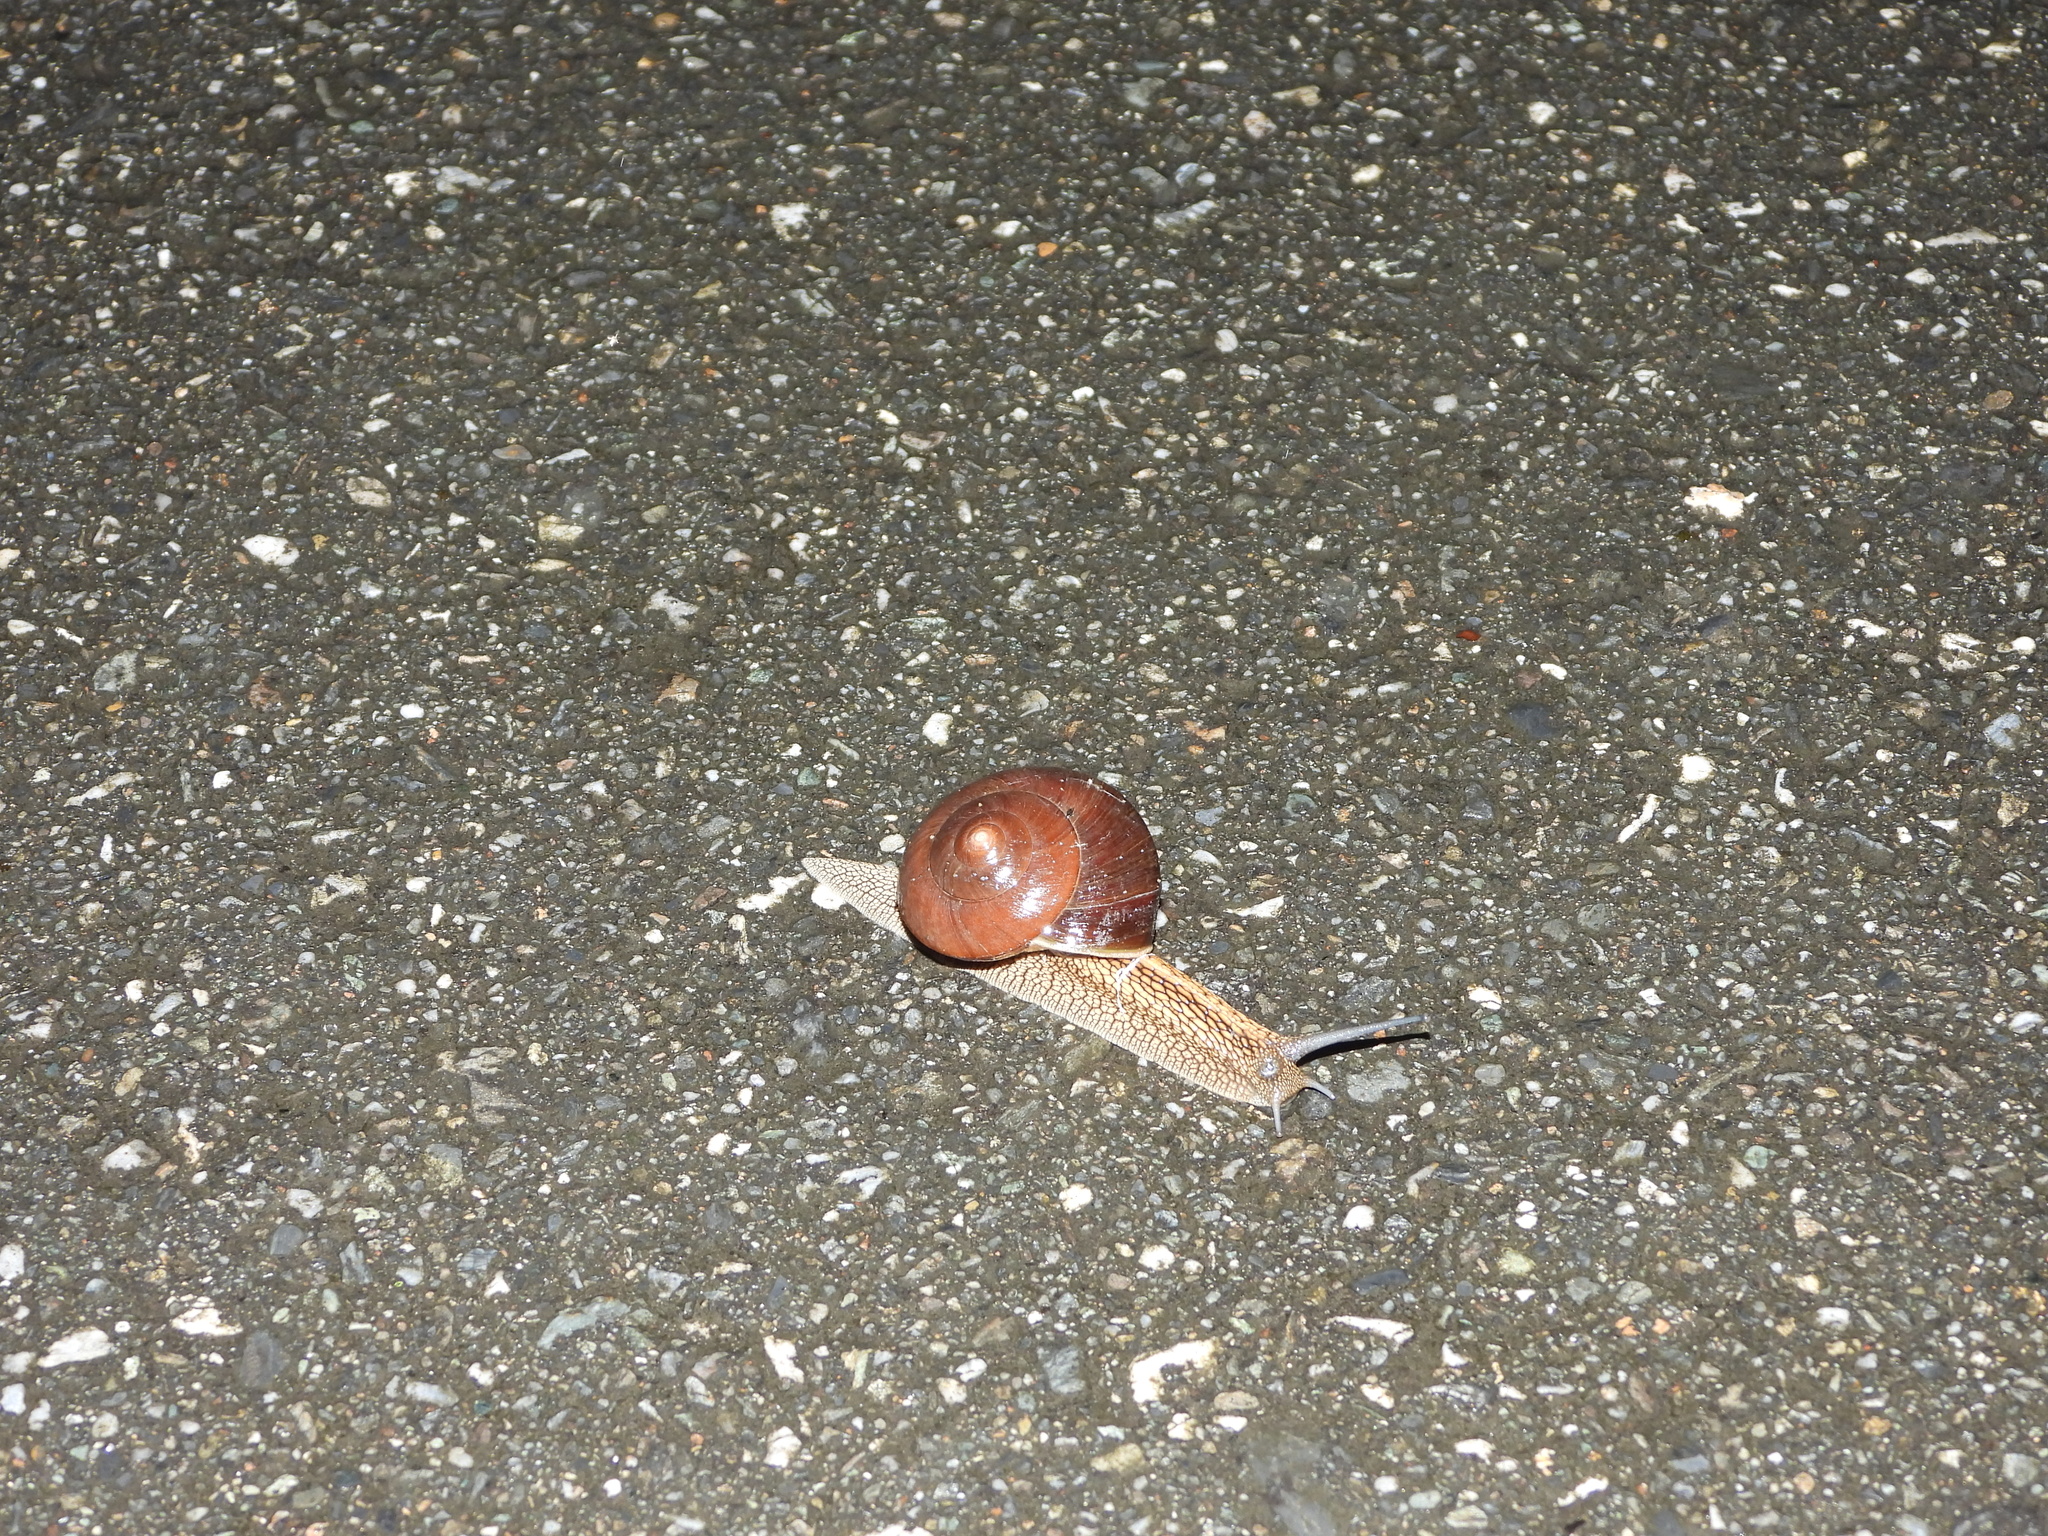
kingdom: Animalia
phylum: Mollusca
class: Gastropoda
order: Stylommatophora
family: Camaenidae
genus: Nesiohelix
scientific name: Nesiohelix swinhoei
